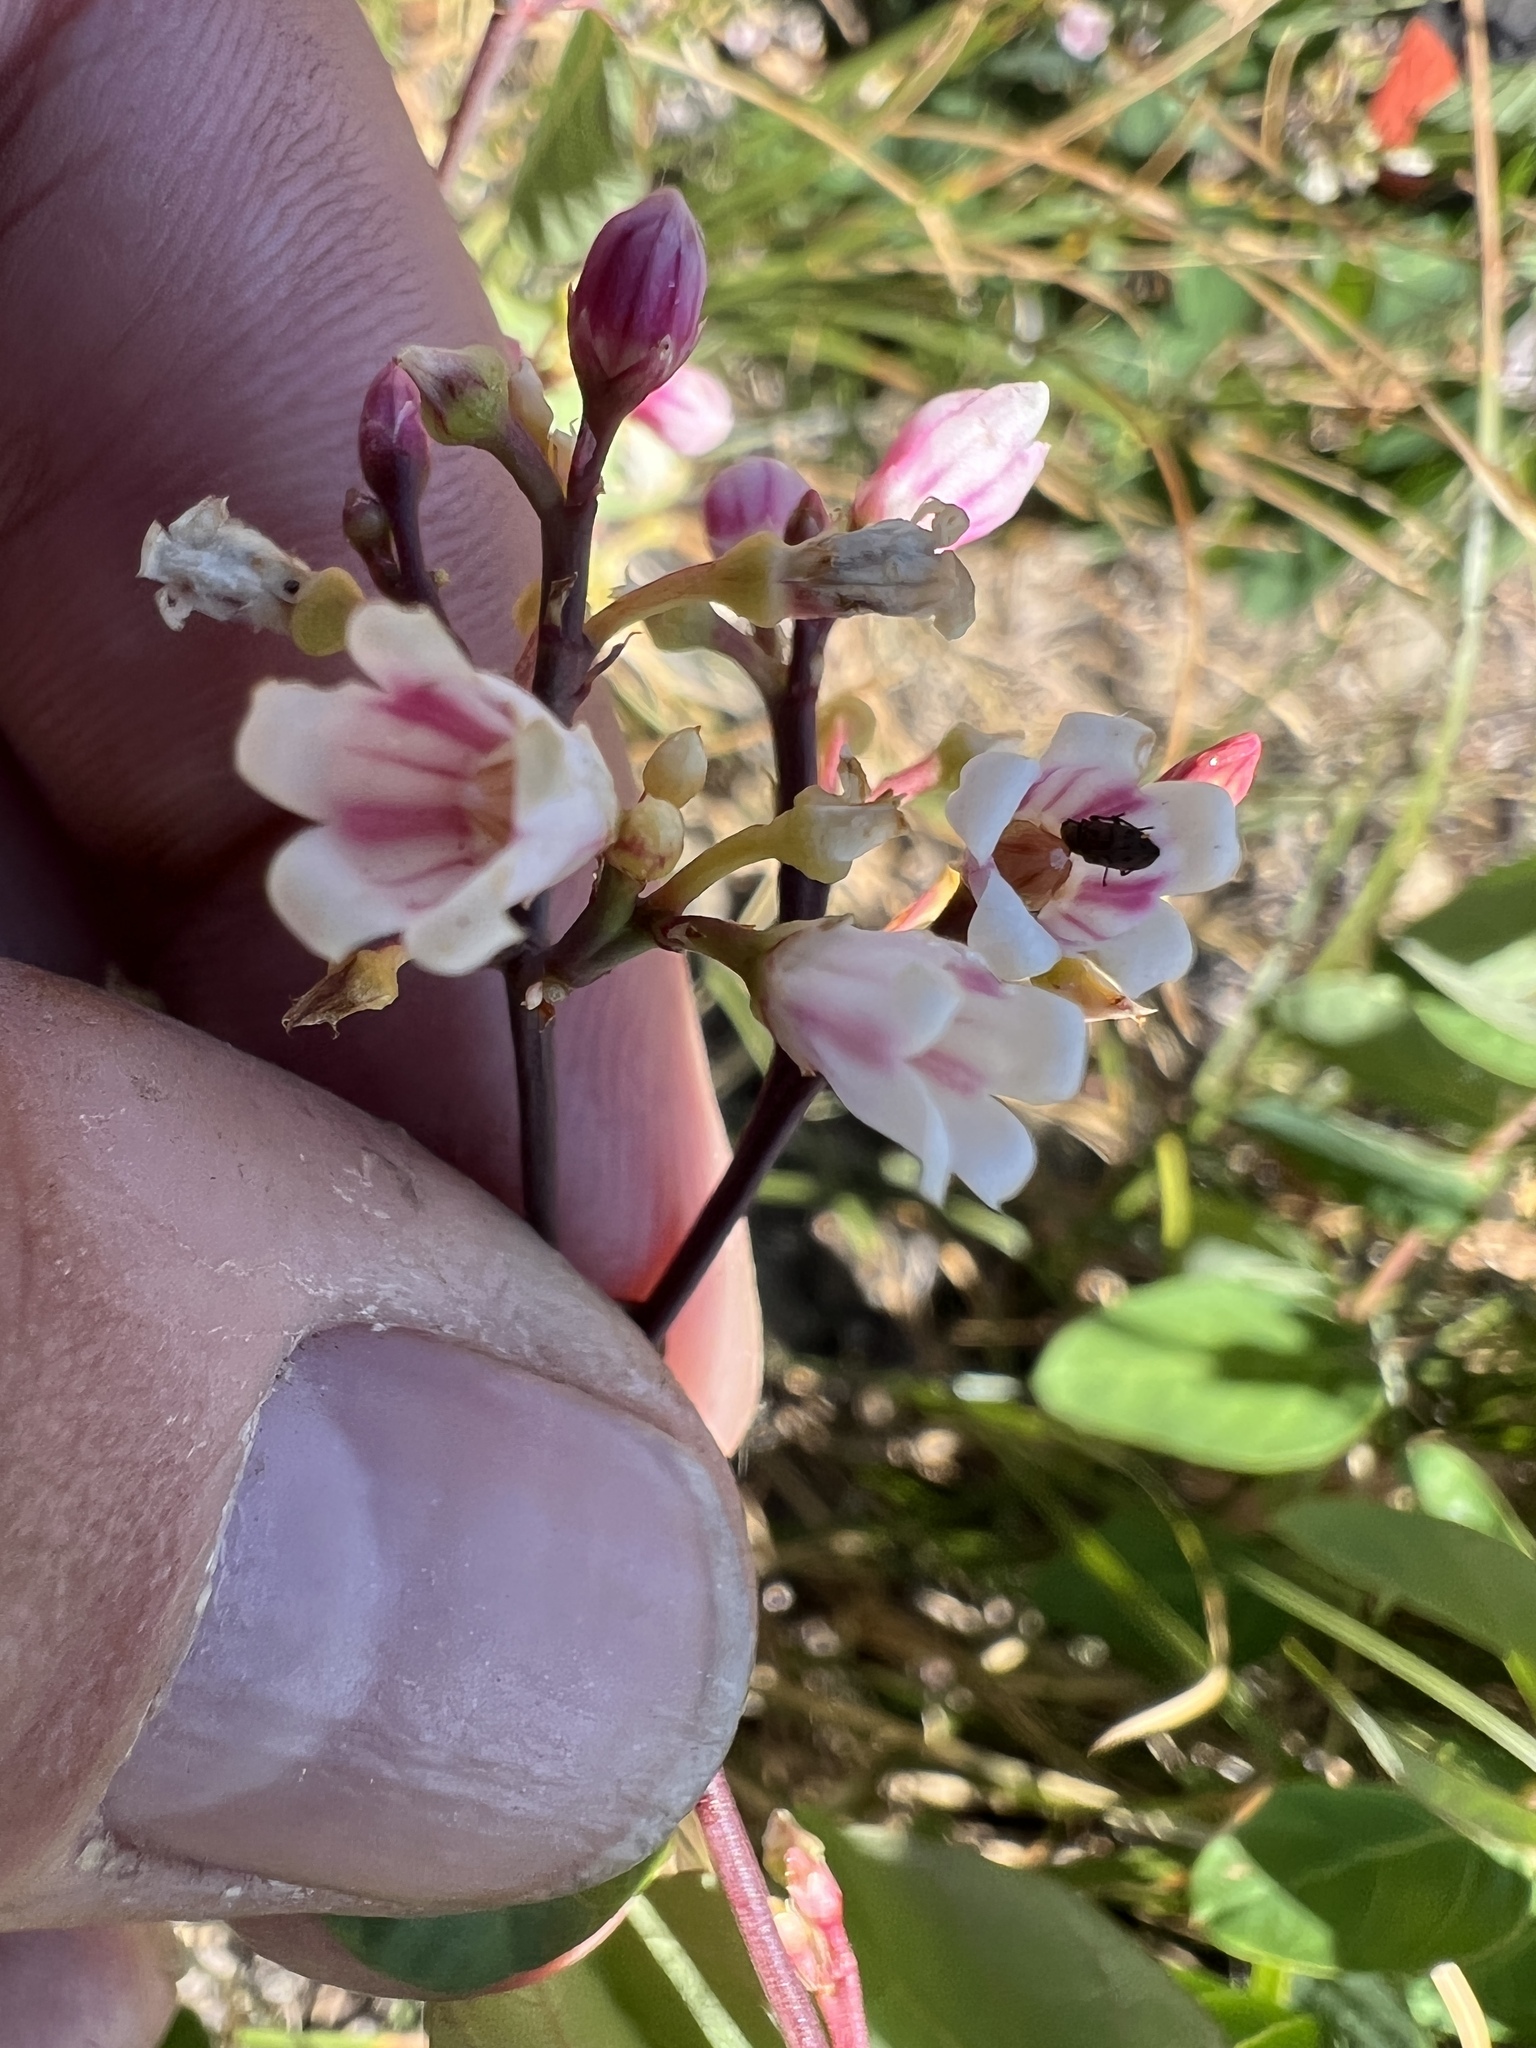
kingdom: Plantae
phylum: Tracheophyta
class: Magnoliopsida
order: Gentianales
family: Apocynaceae
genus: Apocynum
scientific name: Apocynum androsaemifolium
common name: Spreading dogbane
